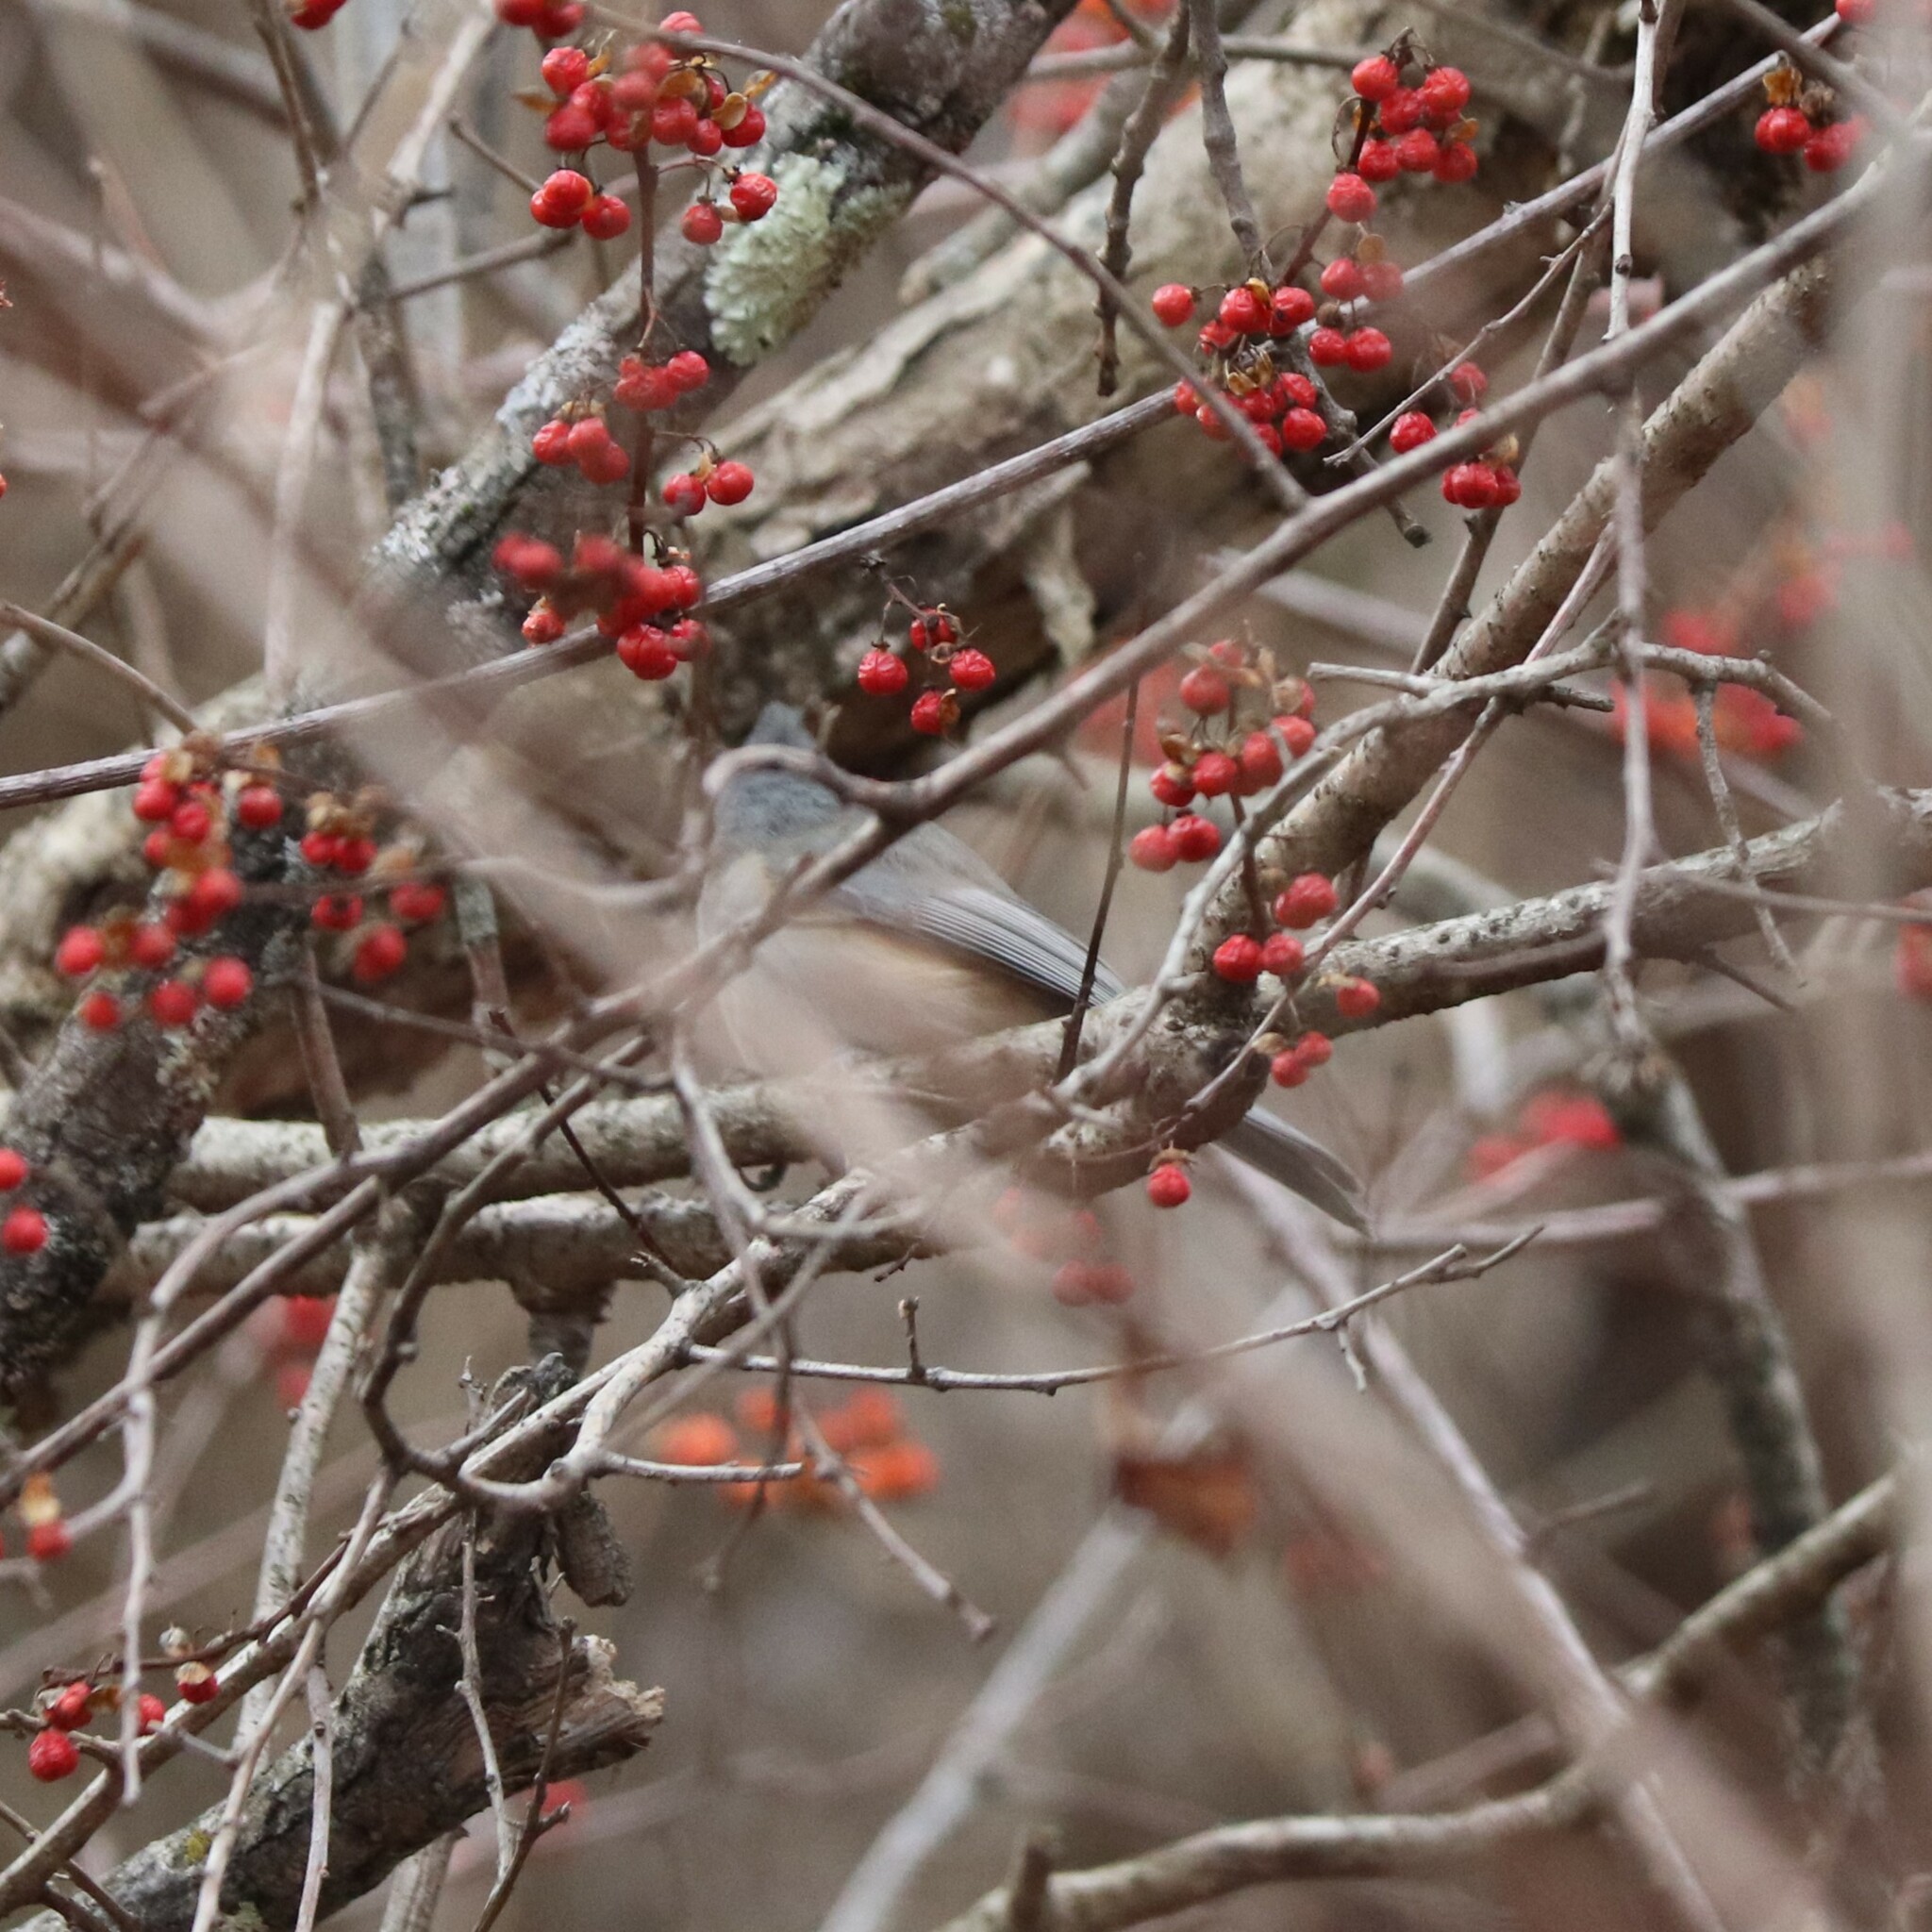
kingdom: Animalia
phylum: Chordata
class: Aves
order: Passeriformes
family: Paridae
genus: Baeolophus
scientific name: Baeolophus bicolor
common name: Tufted titmouse
